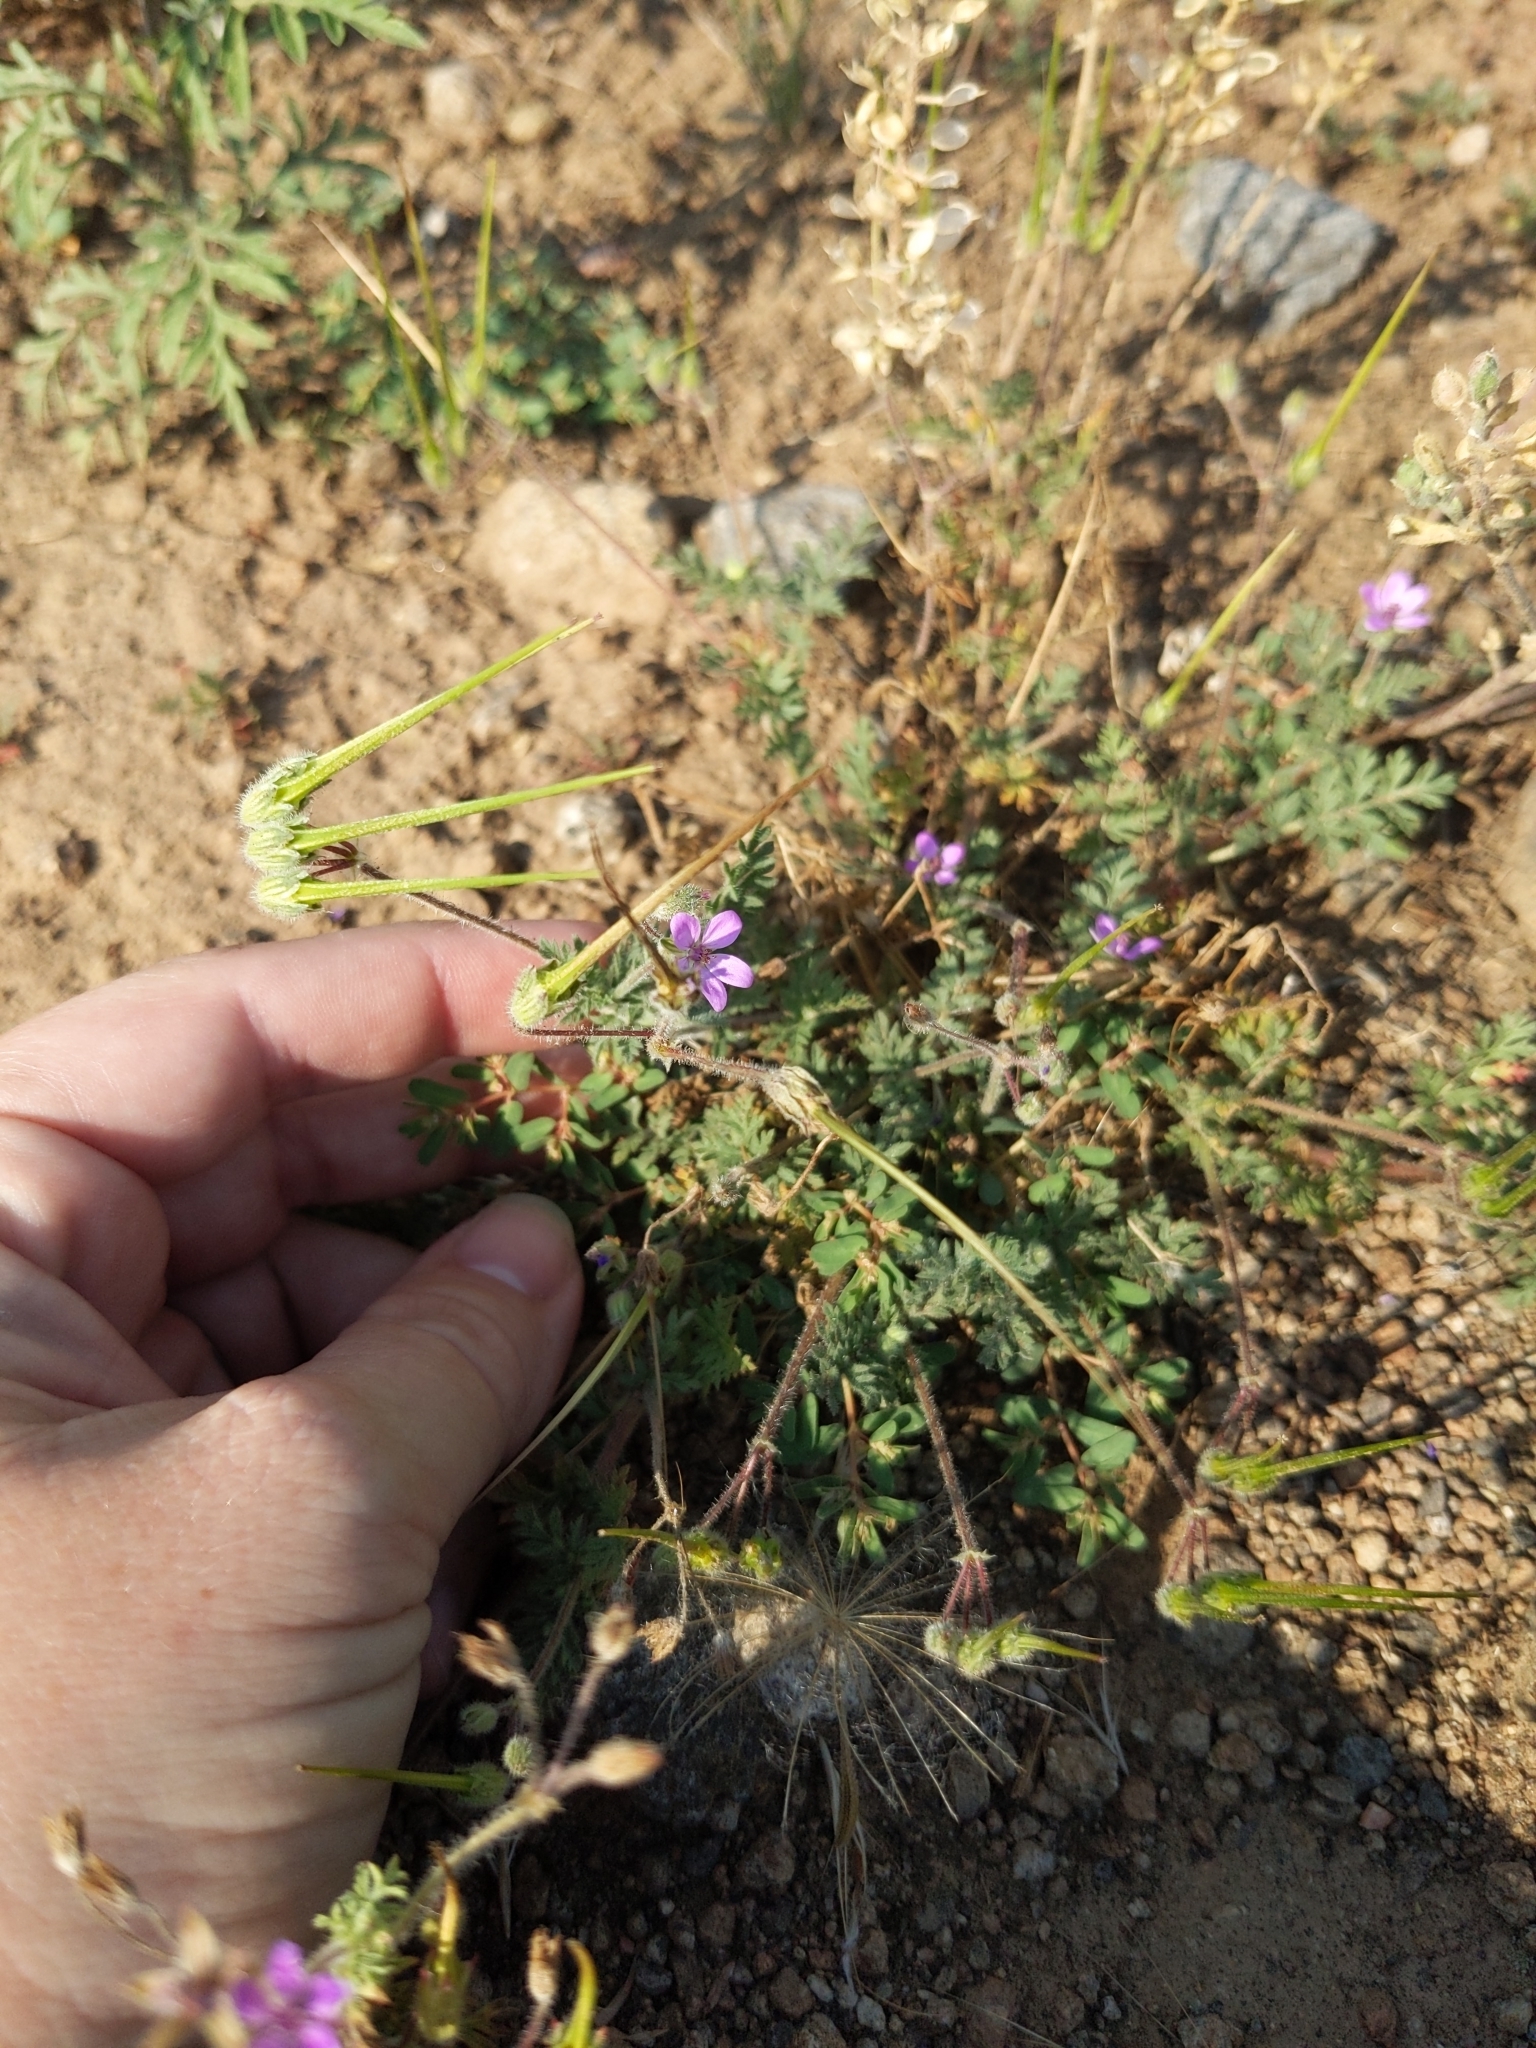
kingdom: Plantae
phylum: Tracheophyta
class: Magnoliopsida
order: Geraniales
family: Geraniaceae
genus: Erodium
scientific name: Erodium cicutarium
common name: Common stork's-bill
